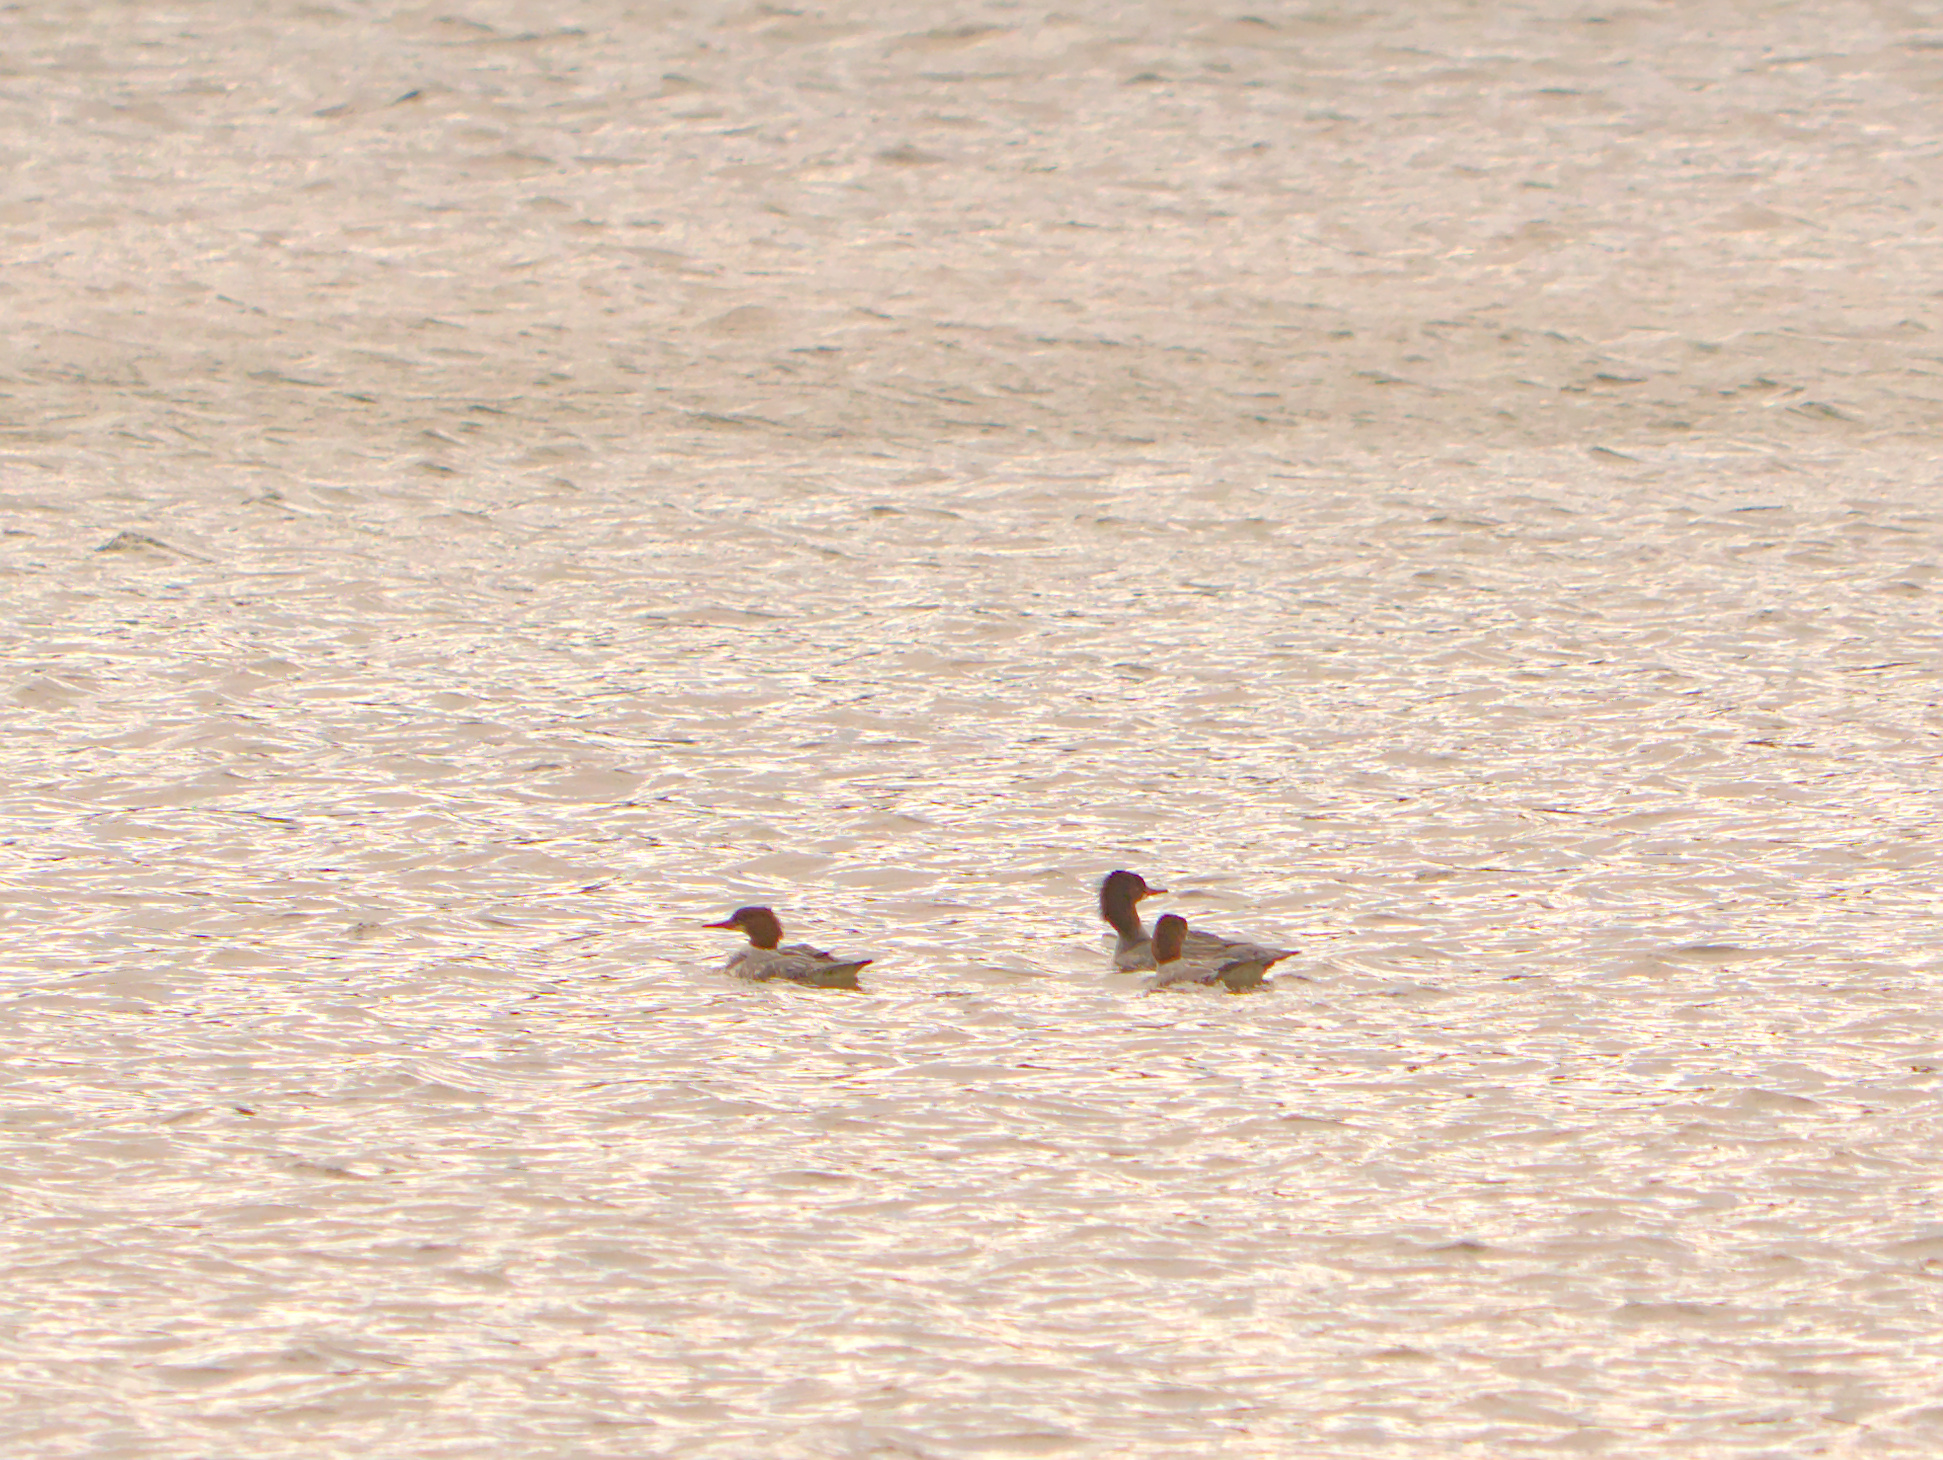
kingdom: Animalia
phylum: Chordata
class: Aves
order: Anseriformes
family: Anatidae
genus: Mergus
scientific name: Mergus serrator
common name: Red-breasted merganser
